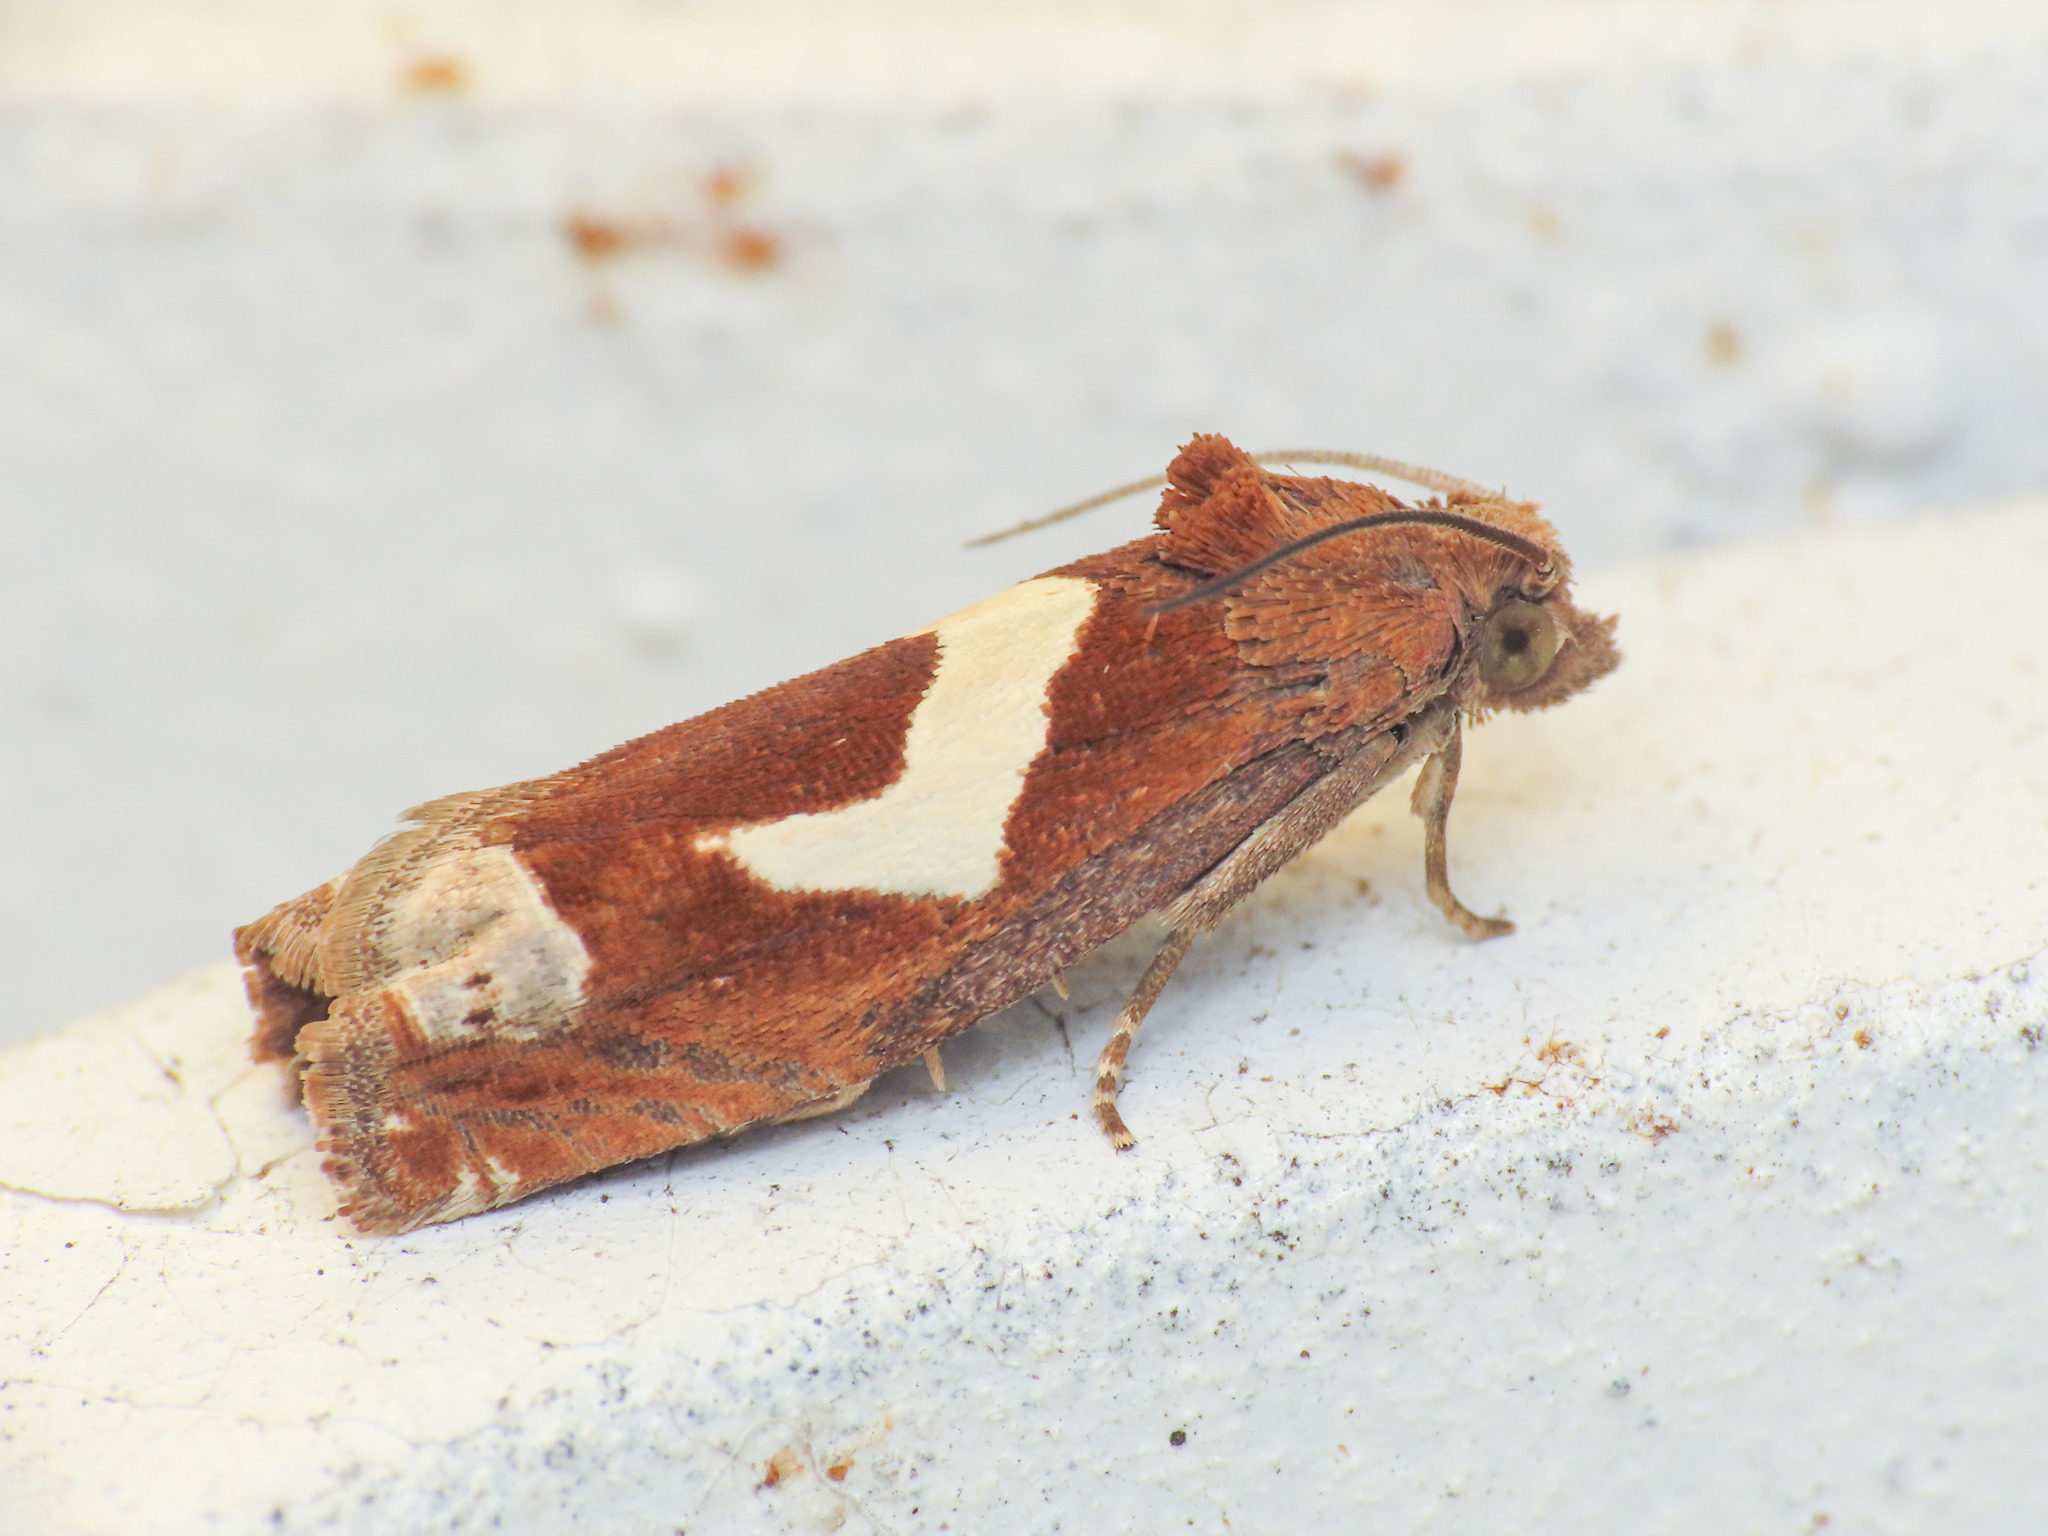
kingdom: Animalia
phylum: Arthropoda
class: Insecta
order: Lepidoptera
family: Tortricidae
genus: Epiblema
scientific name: Epiblema foenella
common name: White-foot bell
